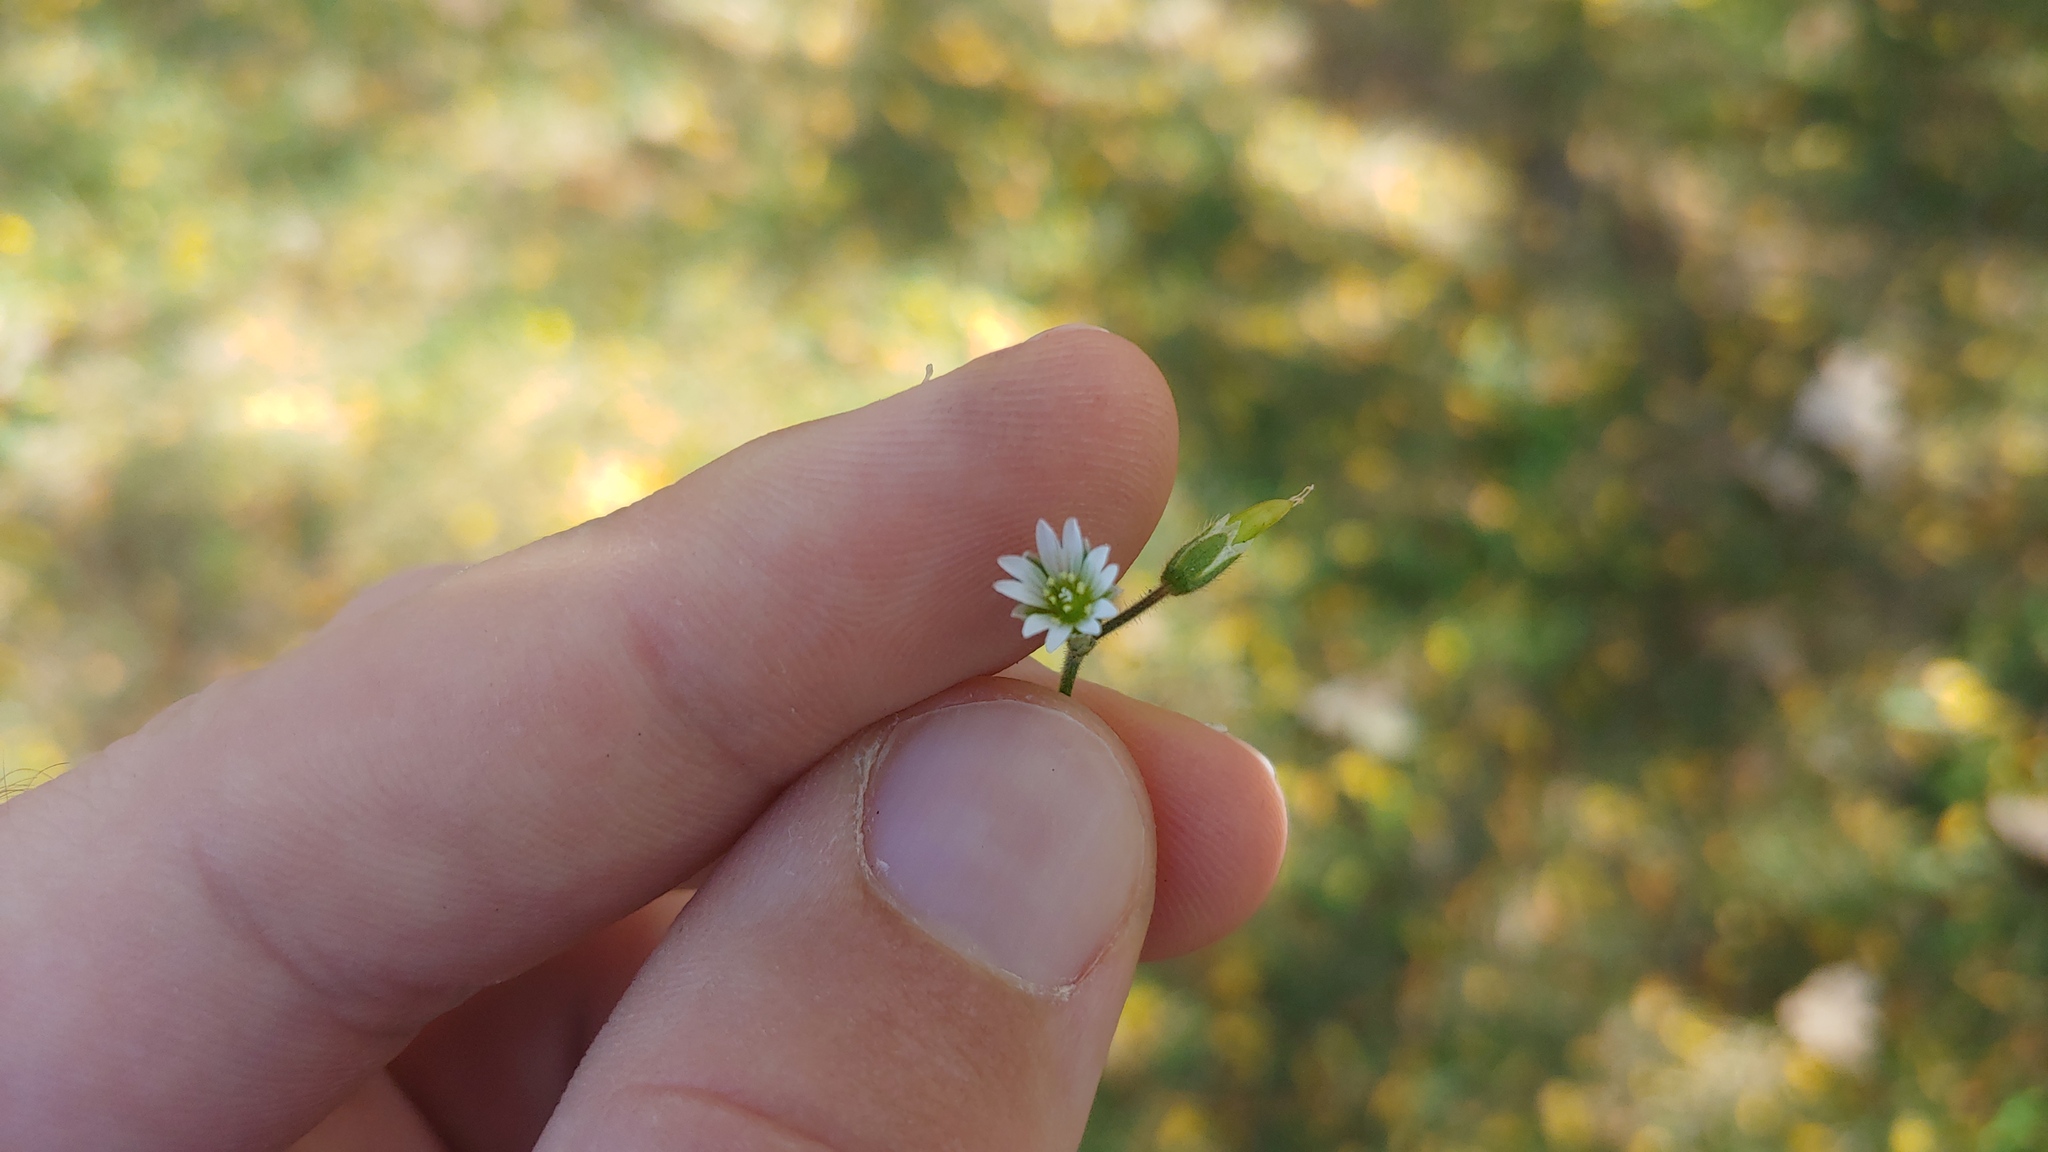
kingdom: Plantae
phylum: Tracheophyta
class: Magnoliopsida
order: Caryophyllales
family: Caryophyllaceae
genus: Cerastium
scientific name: Cerastium fontanum
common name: Common mouse-ear
